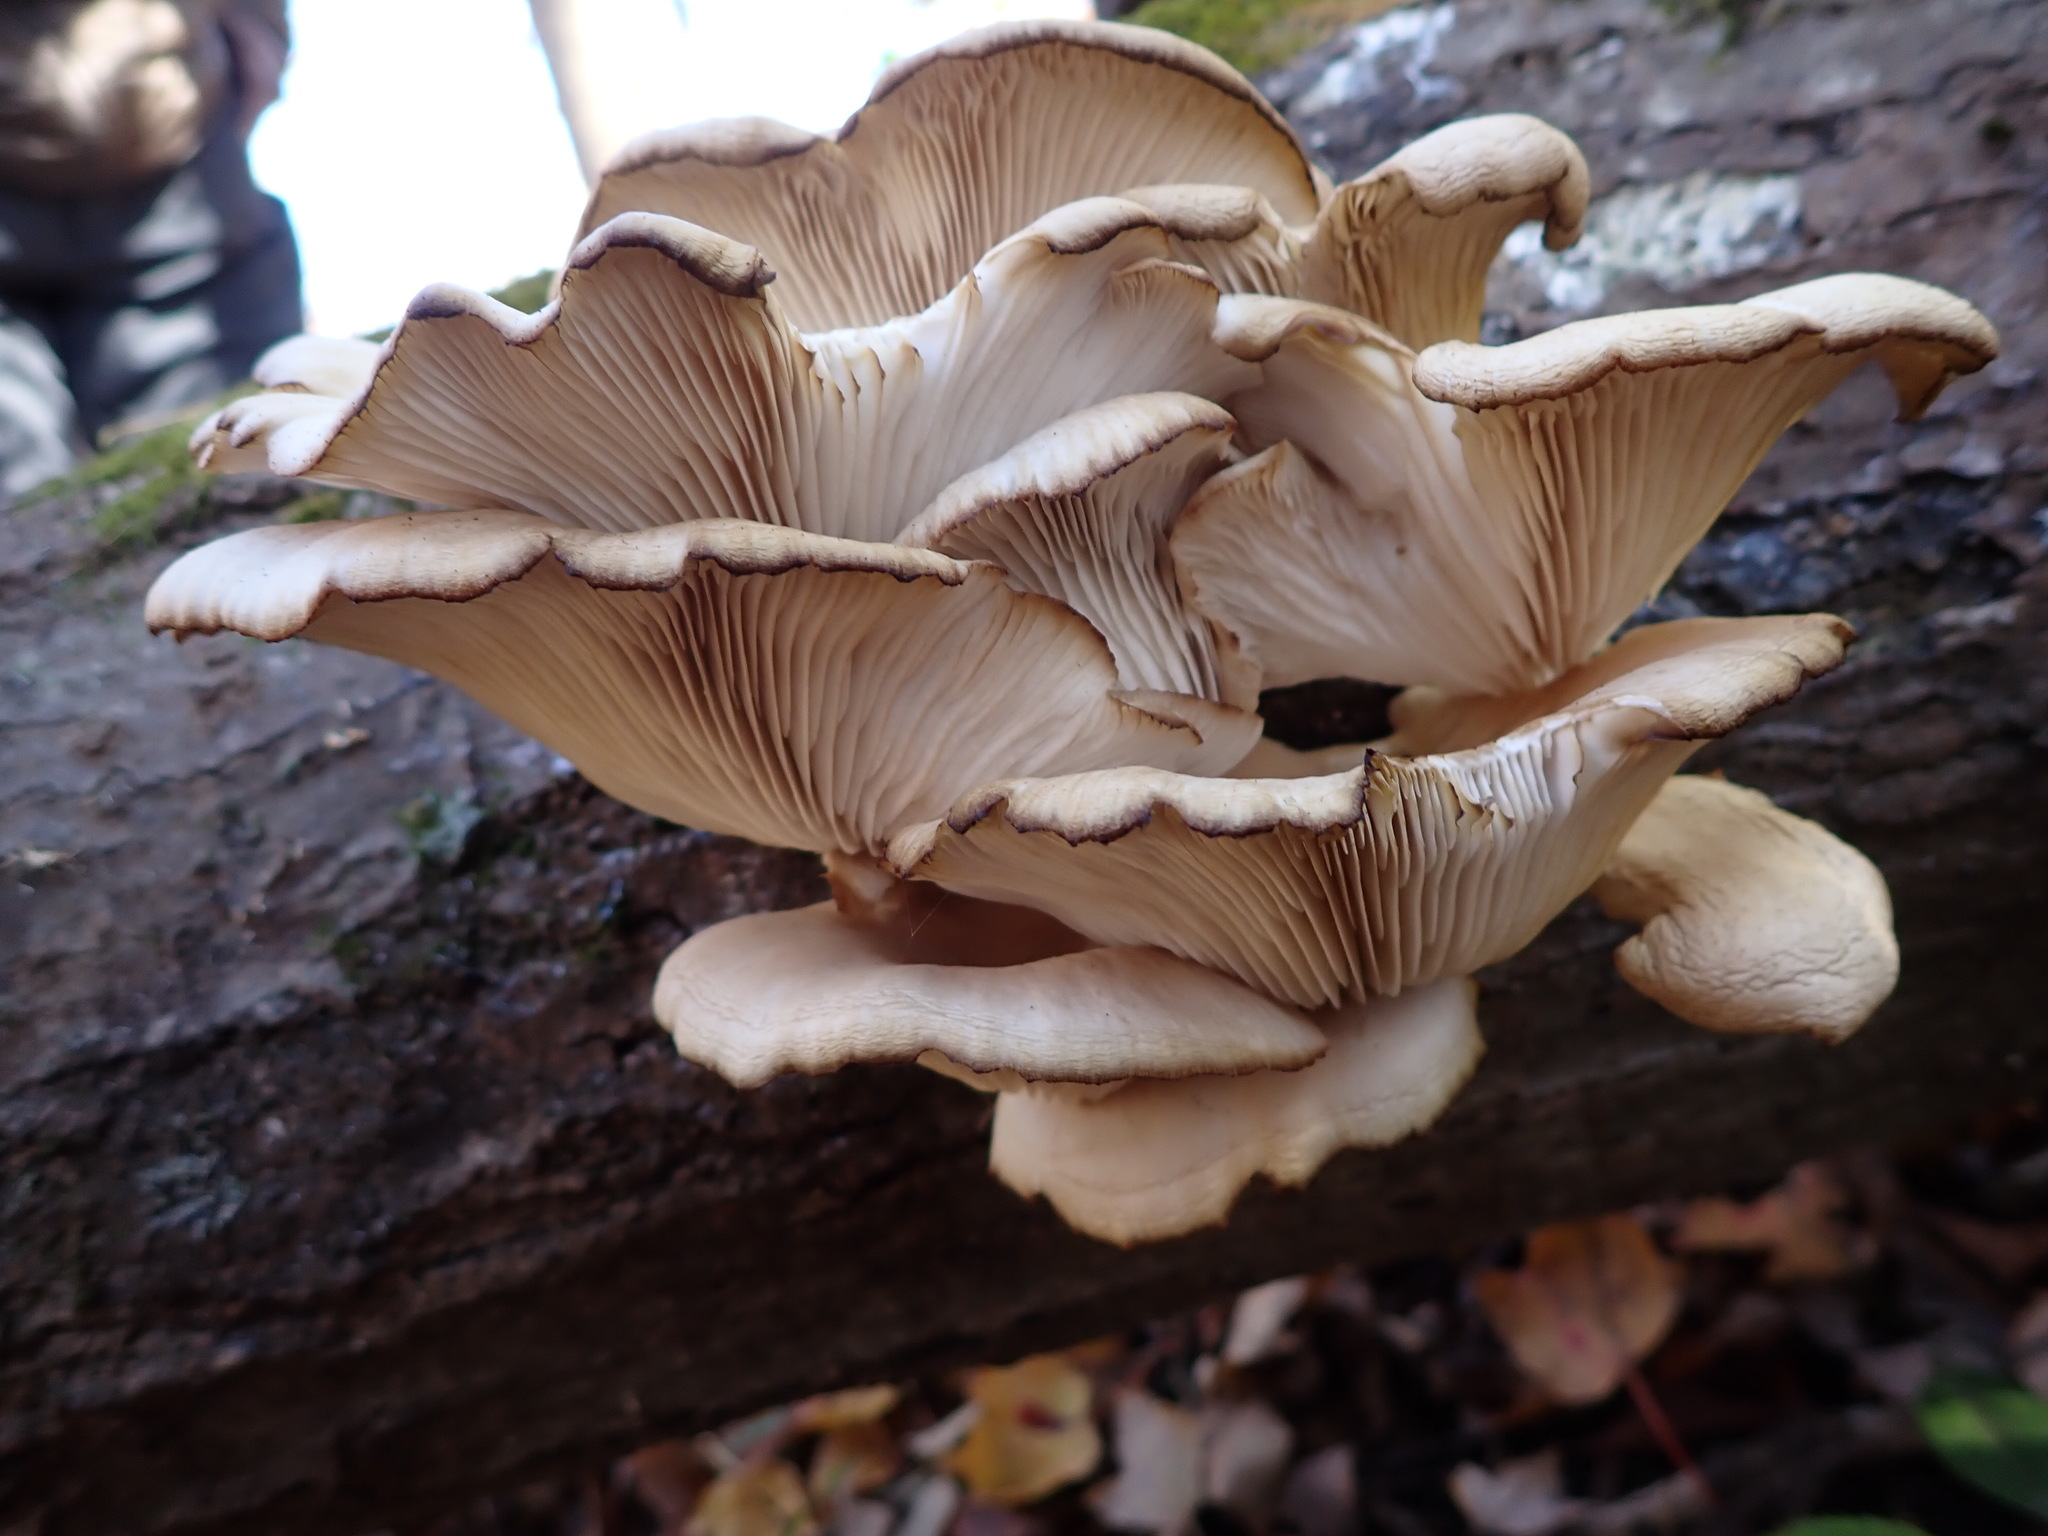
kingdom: Fungi
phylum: Basidiomycota
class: Agaricomycetes
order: Agaricales
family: Pleurotaceae
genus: Pleurotus
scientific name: Pleurotus ostreatus
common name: Oyster mushroom
